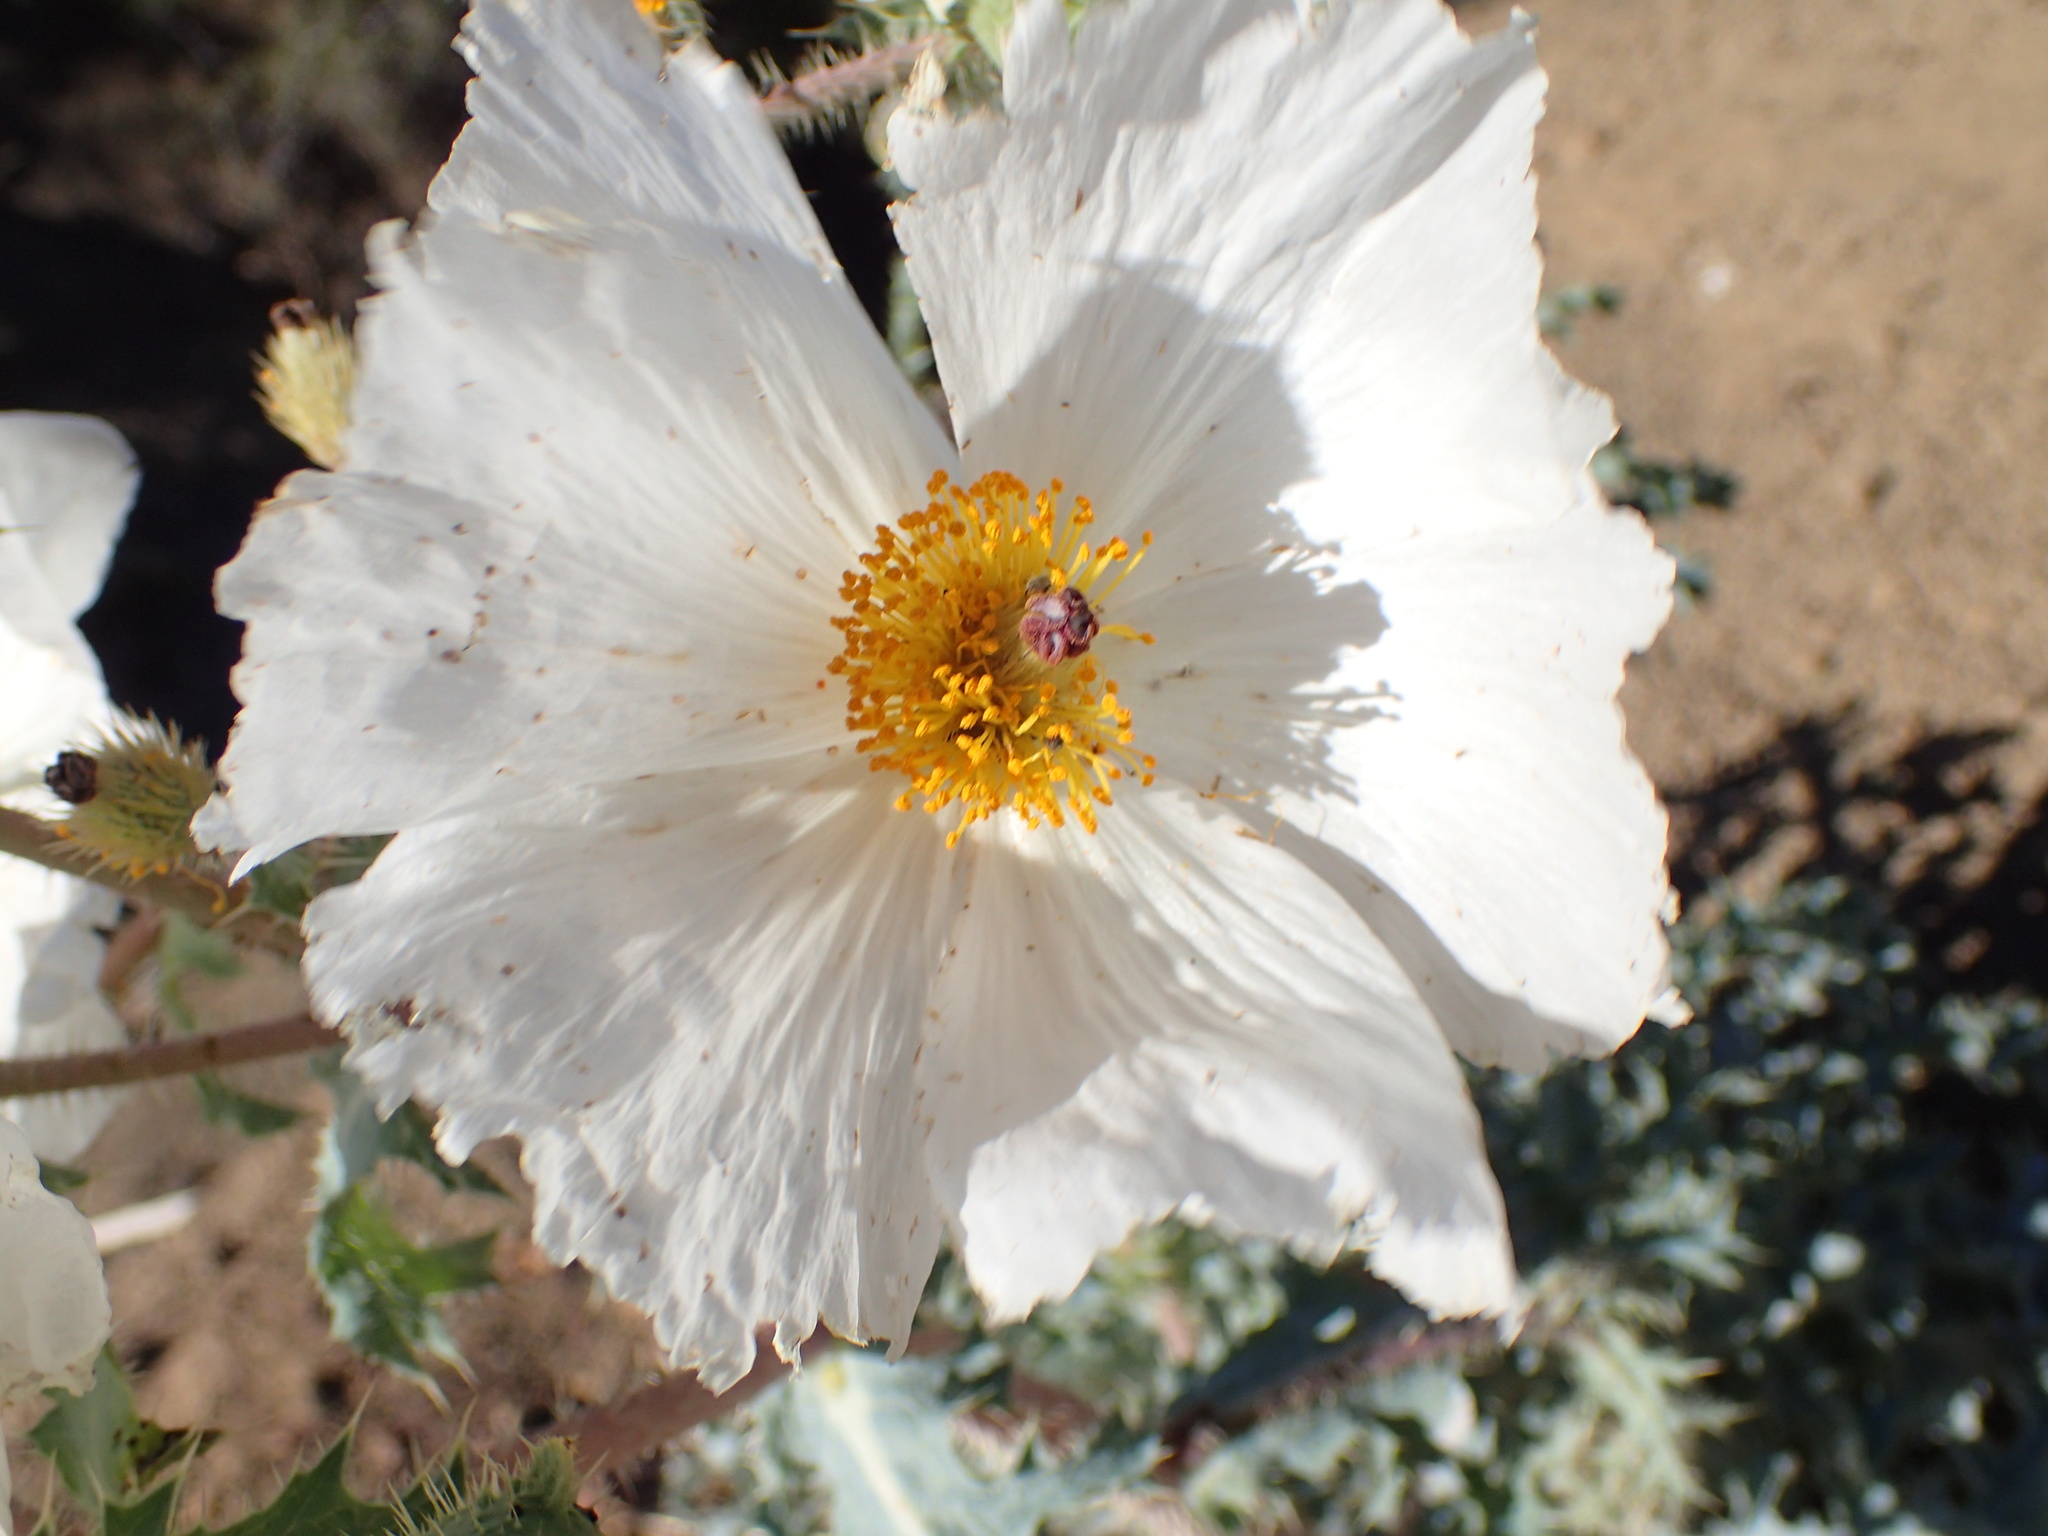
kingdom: Plantae
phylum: Tracheophyta
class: Magnoliopsida
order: Ranunculales
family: Papaveraceae
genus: Argemone
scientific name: Argemone munita
